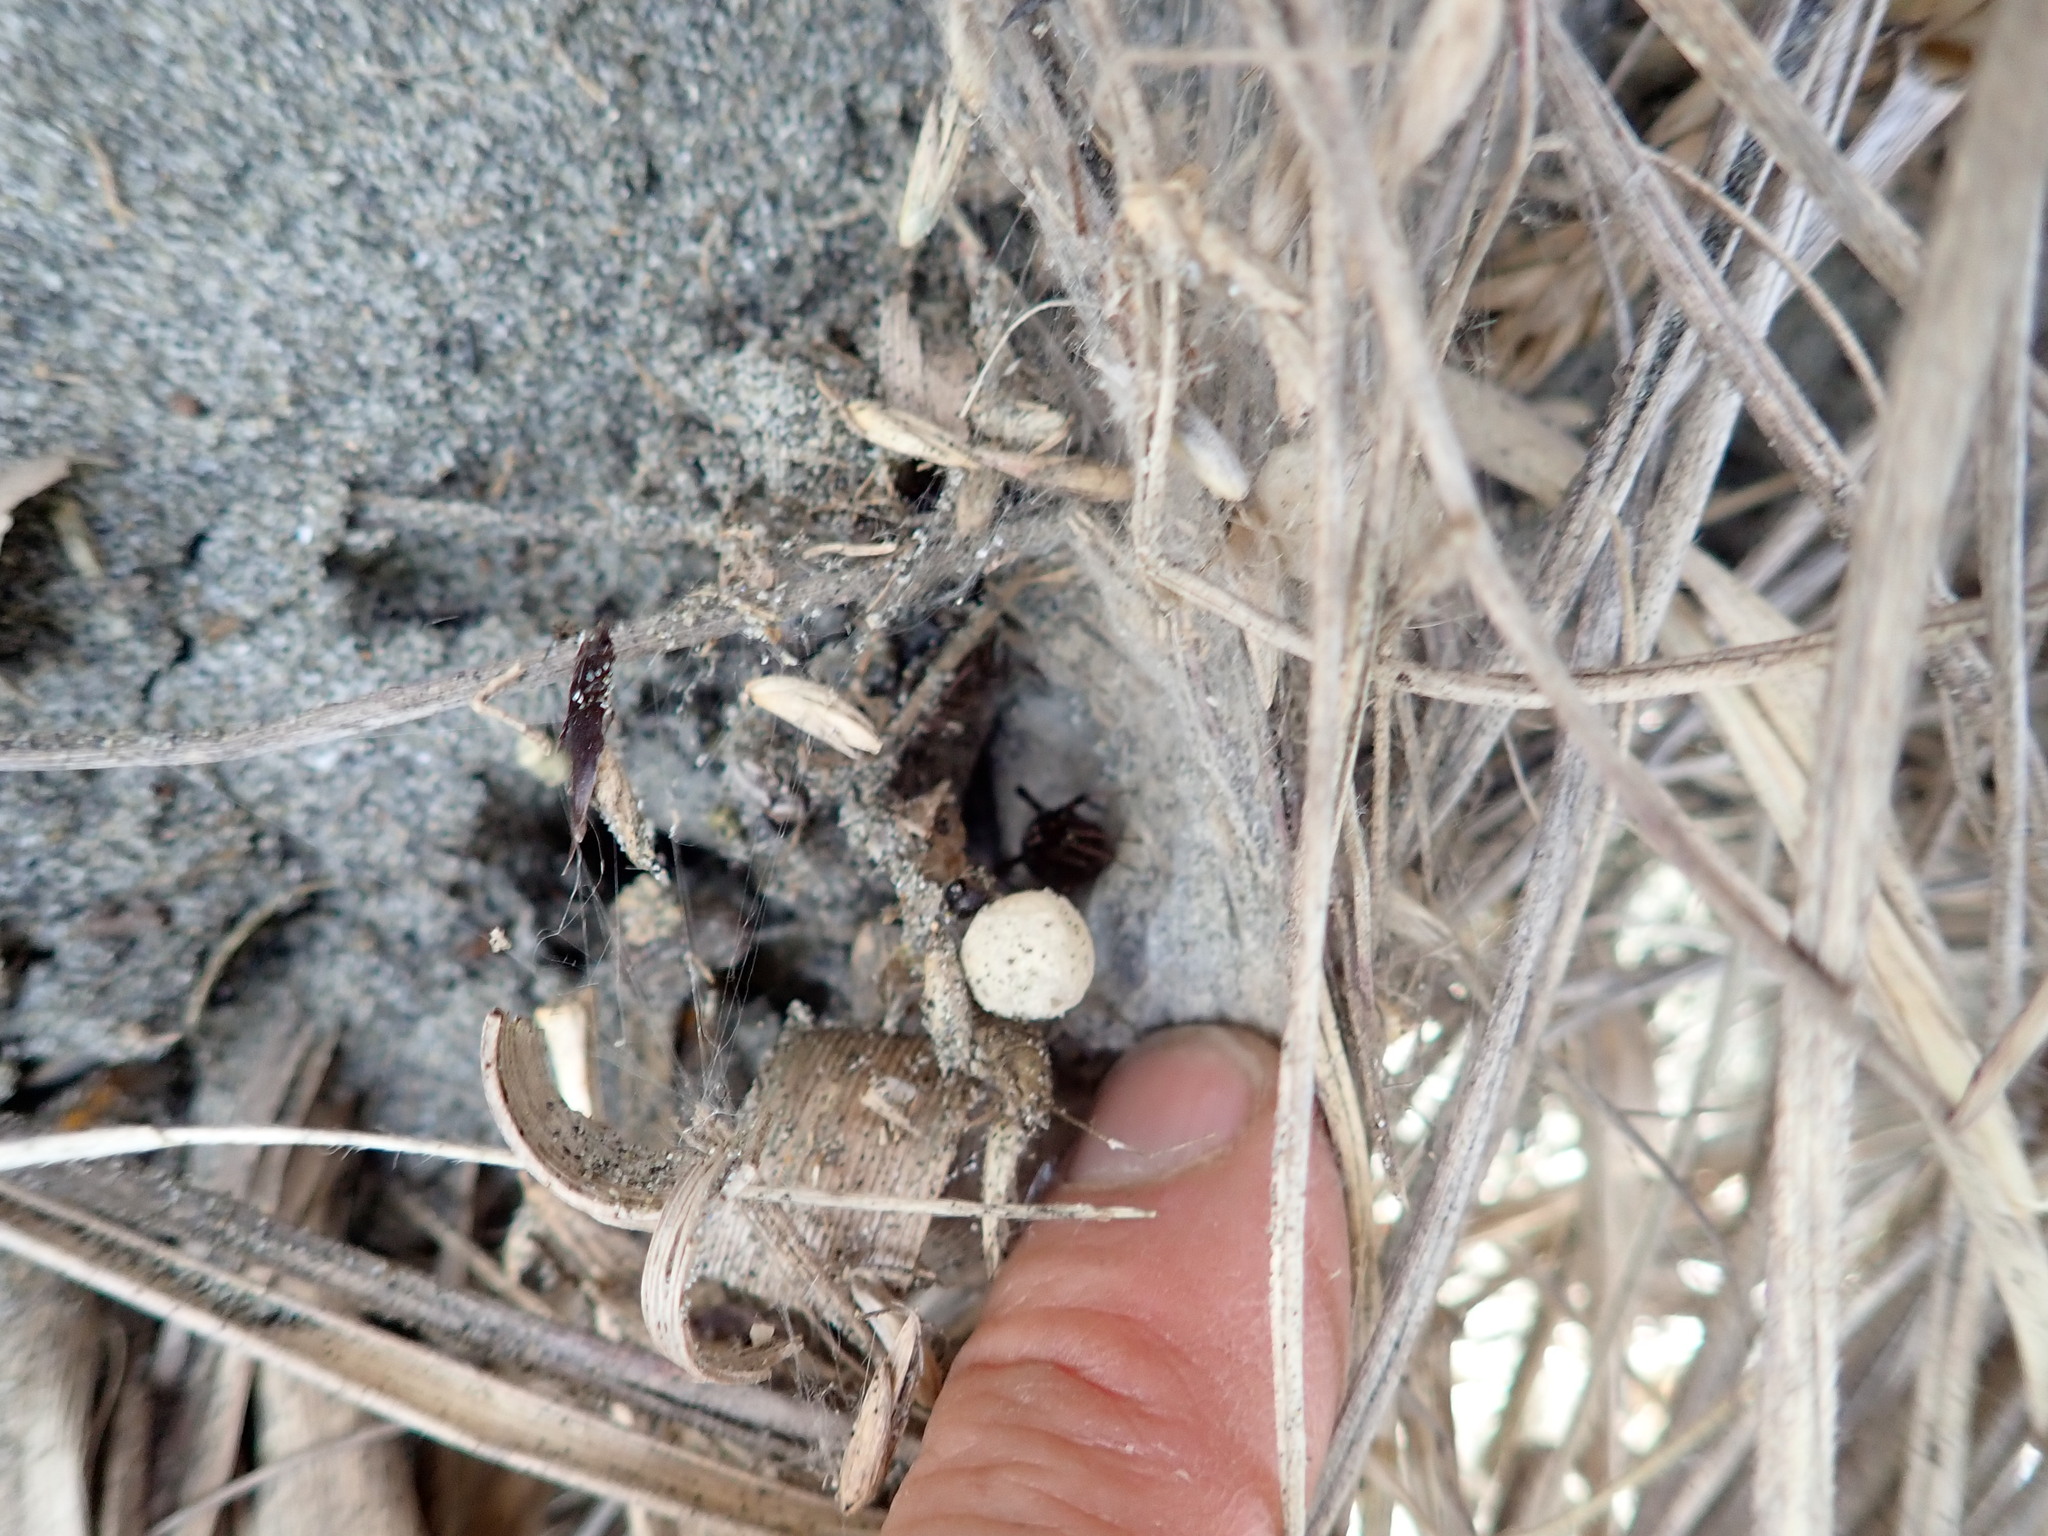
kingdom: Animalia
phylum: Arthropoda
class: Arachnida
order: Araneae
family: Theridiidae
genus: Latrodectus
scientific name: Latrodectus katipo
